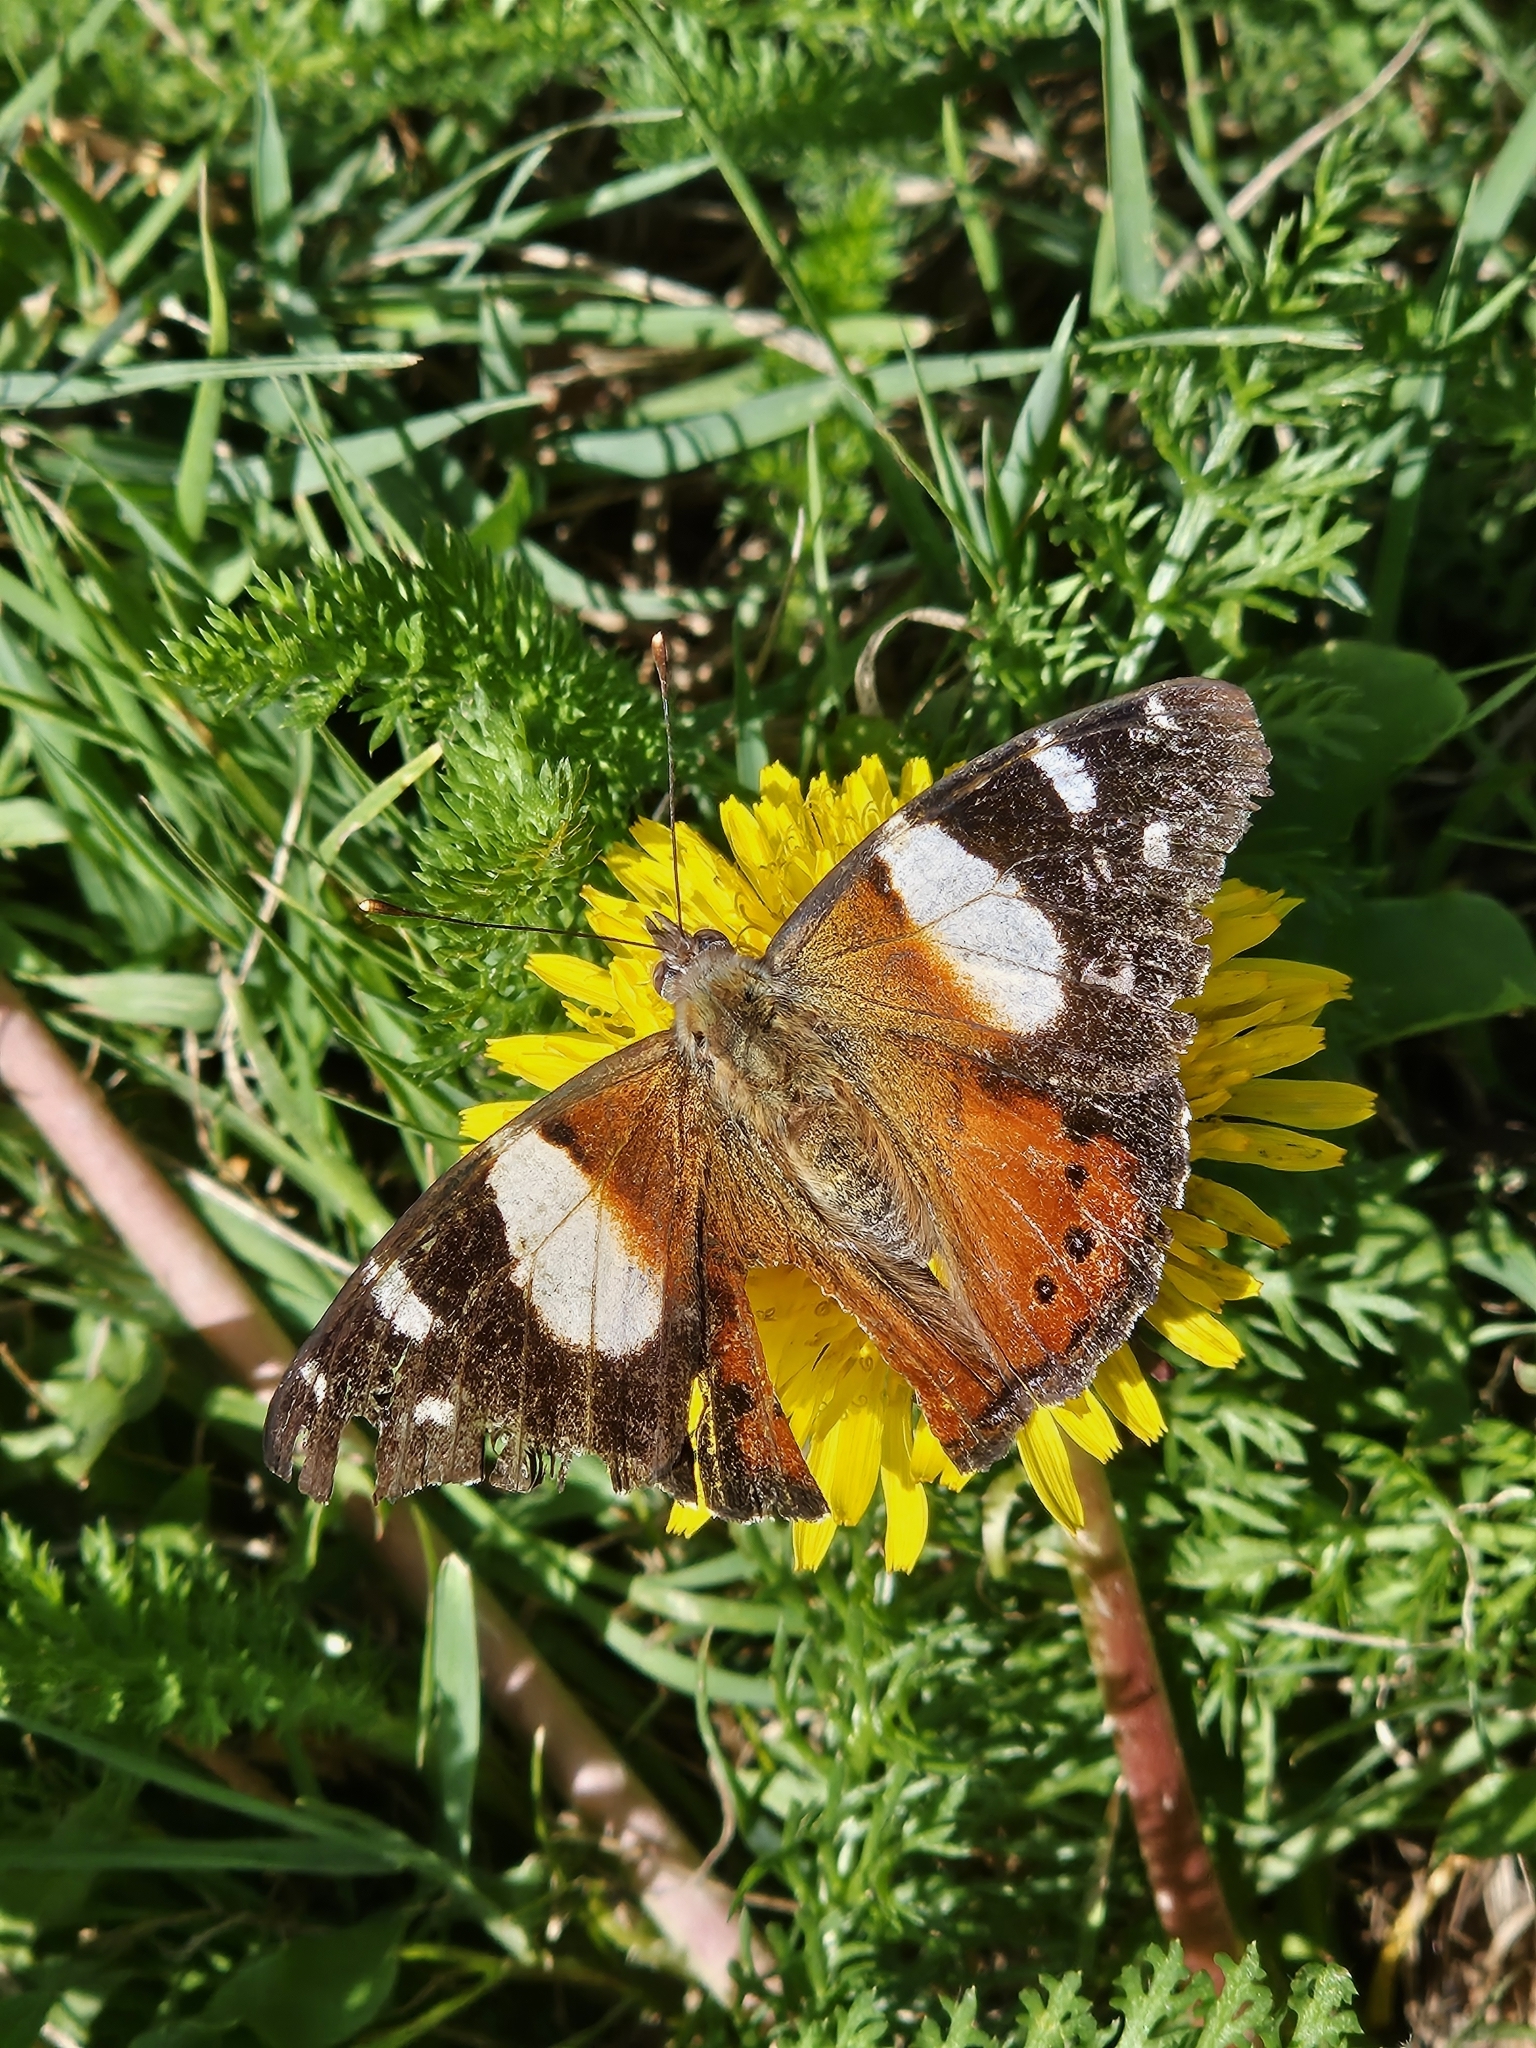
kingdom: Animalia
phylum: Arthropoda
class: Insecta
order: Lepidoptera
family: Nymphalidae
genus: Vanessa
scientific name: Vanessa itea
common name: Yellow admiral
